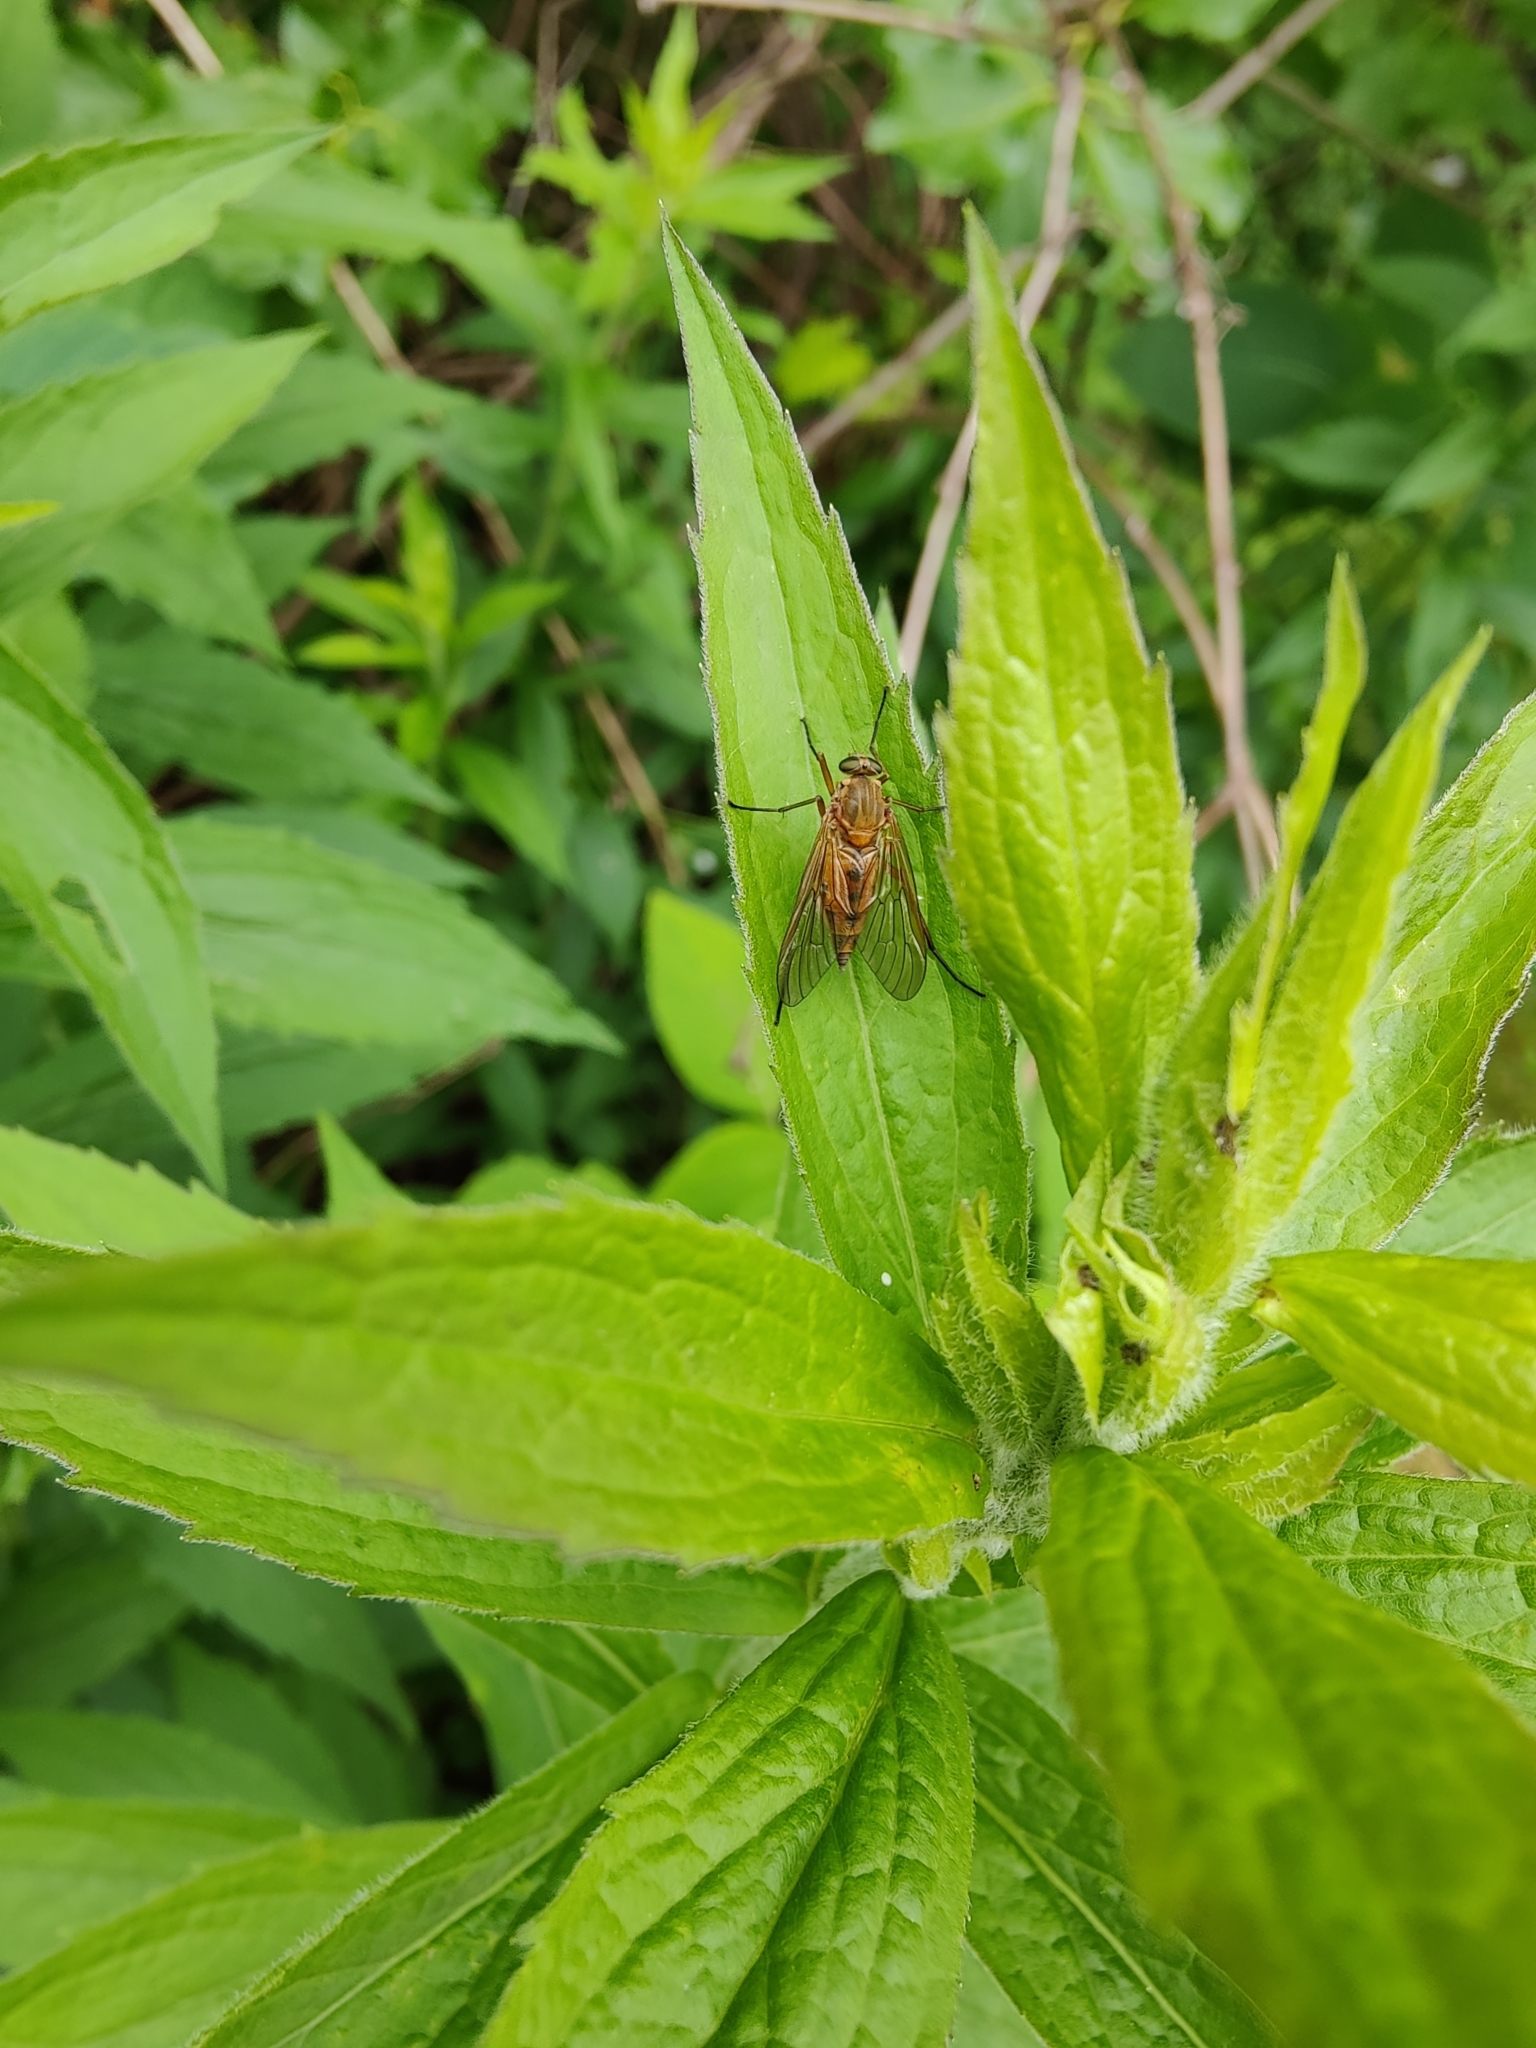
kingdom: Animalia
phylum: Arthropoda
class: Insecta
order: Diptera
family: Rhagionidae
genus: Rhagio
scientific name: Rhagio tringaria
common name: Marsh snipefly
